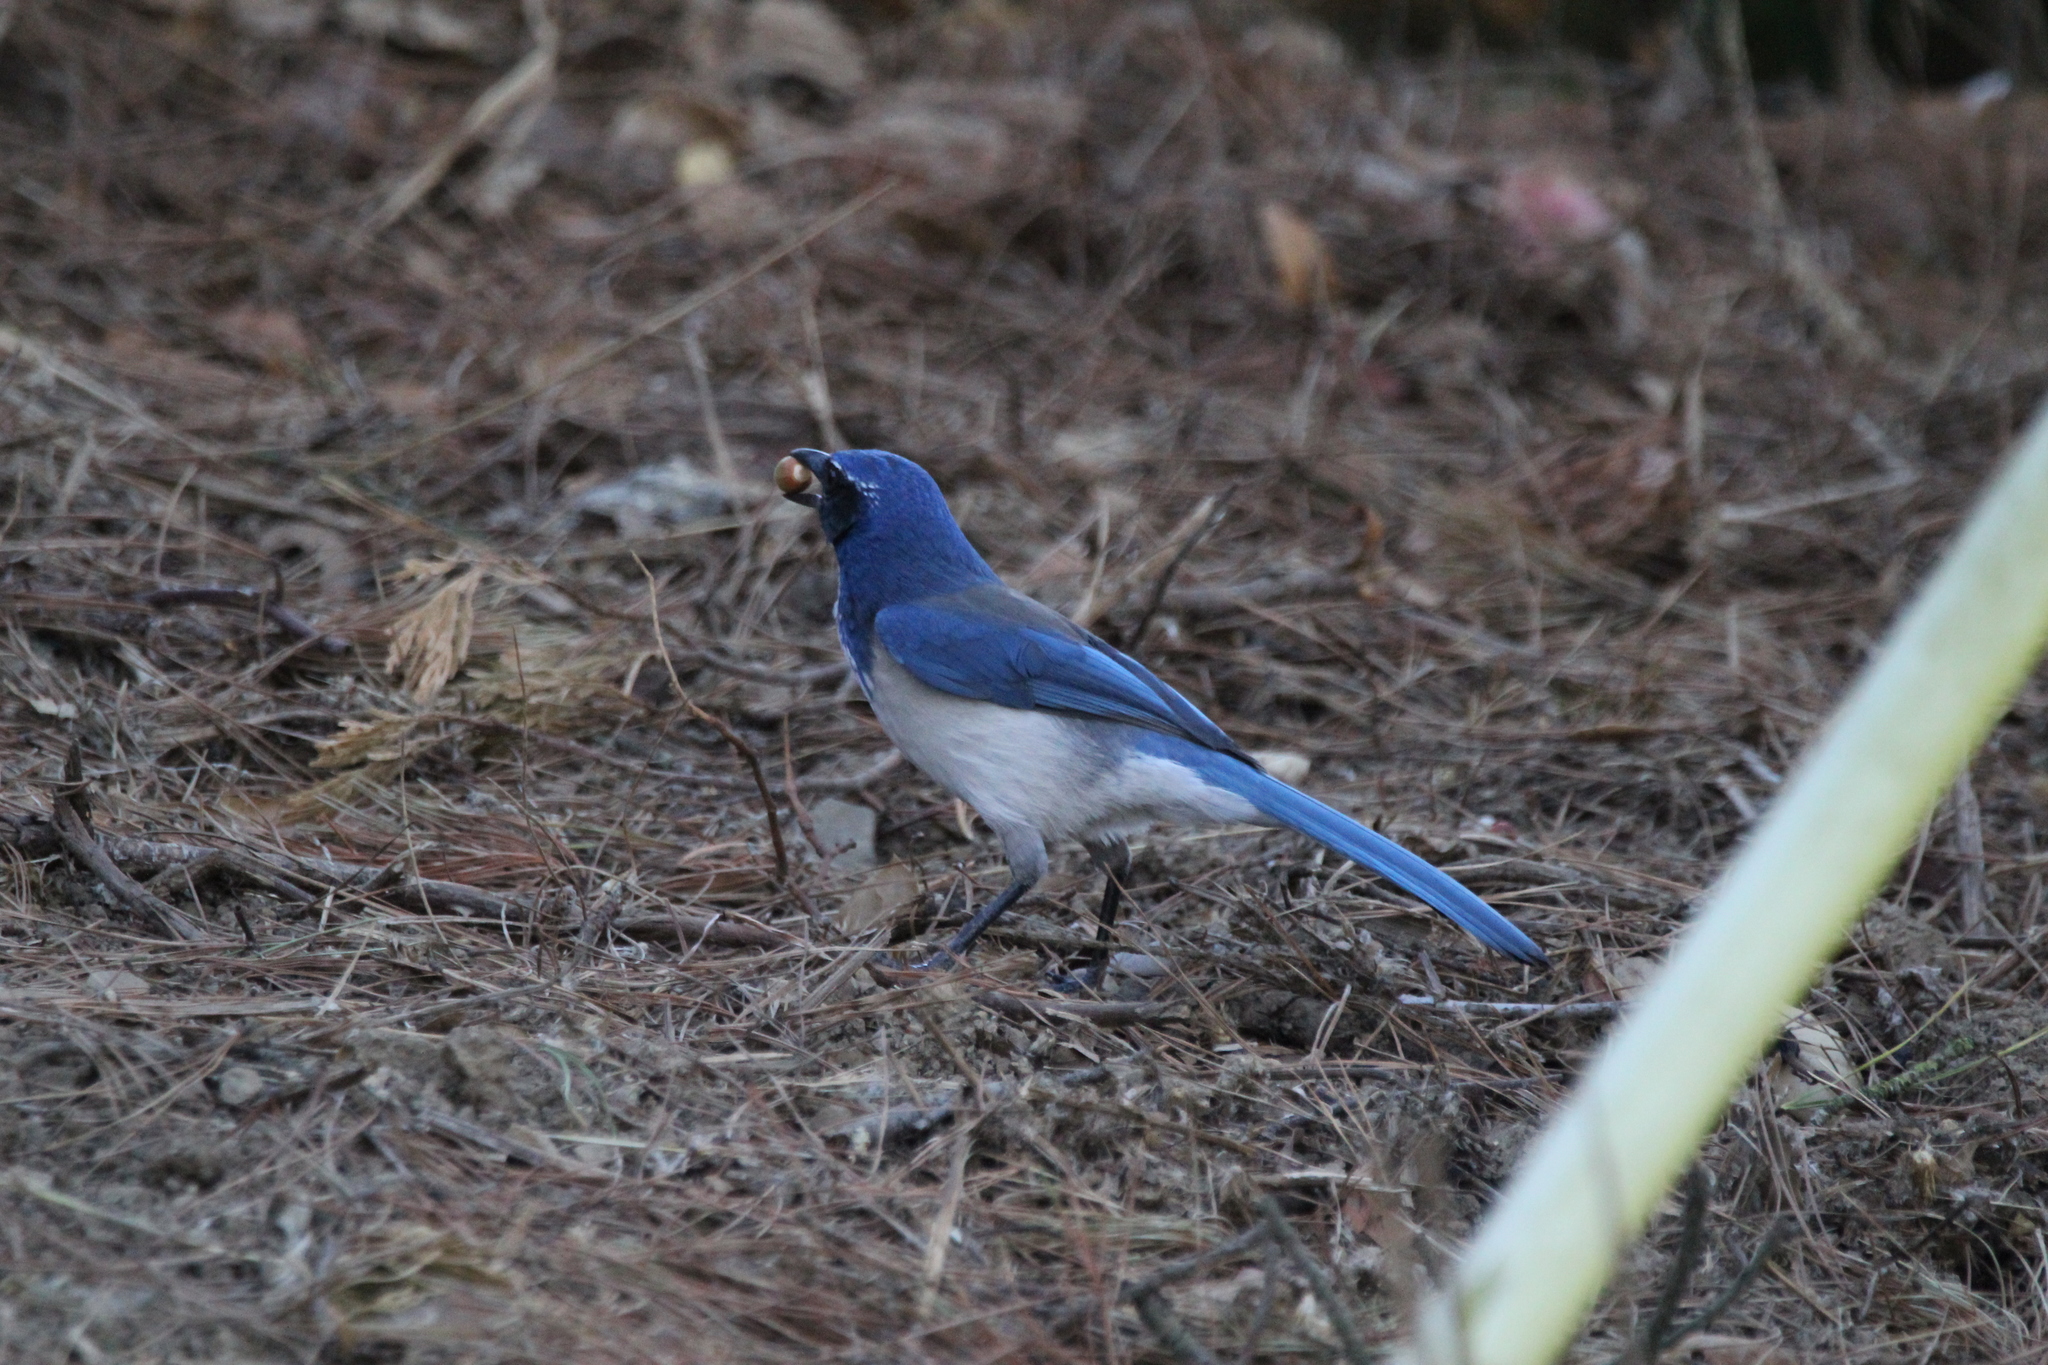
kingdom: Animalia
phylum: Chordata
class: Aves
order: Passeriformes
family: Corvidae
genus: Aphelocoma
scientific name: Aphelocoma californica
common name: California scrub-jay
